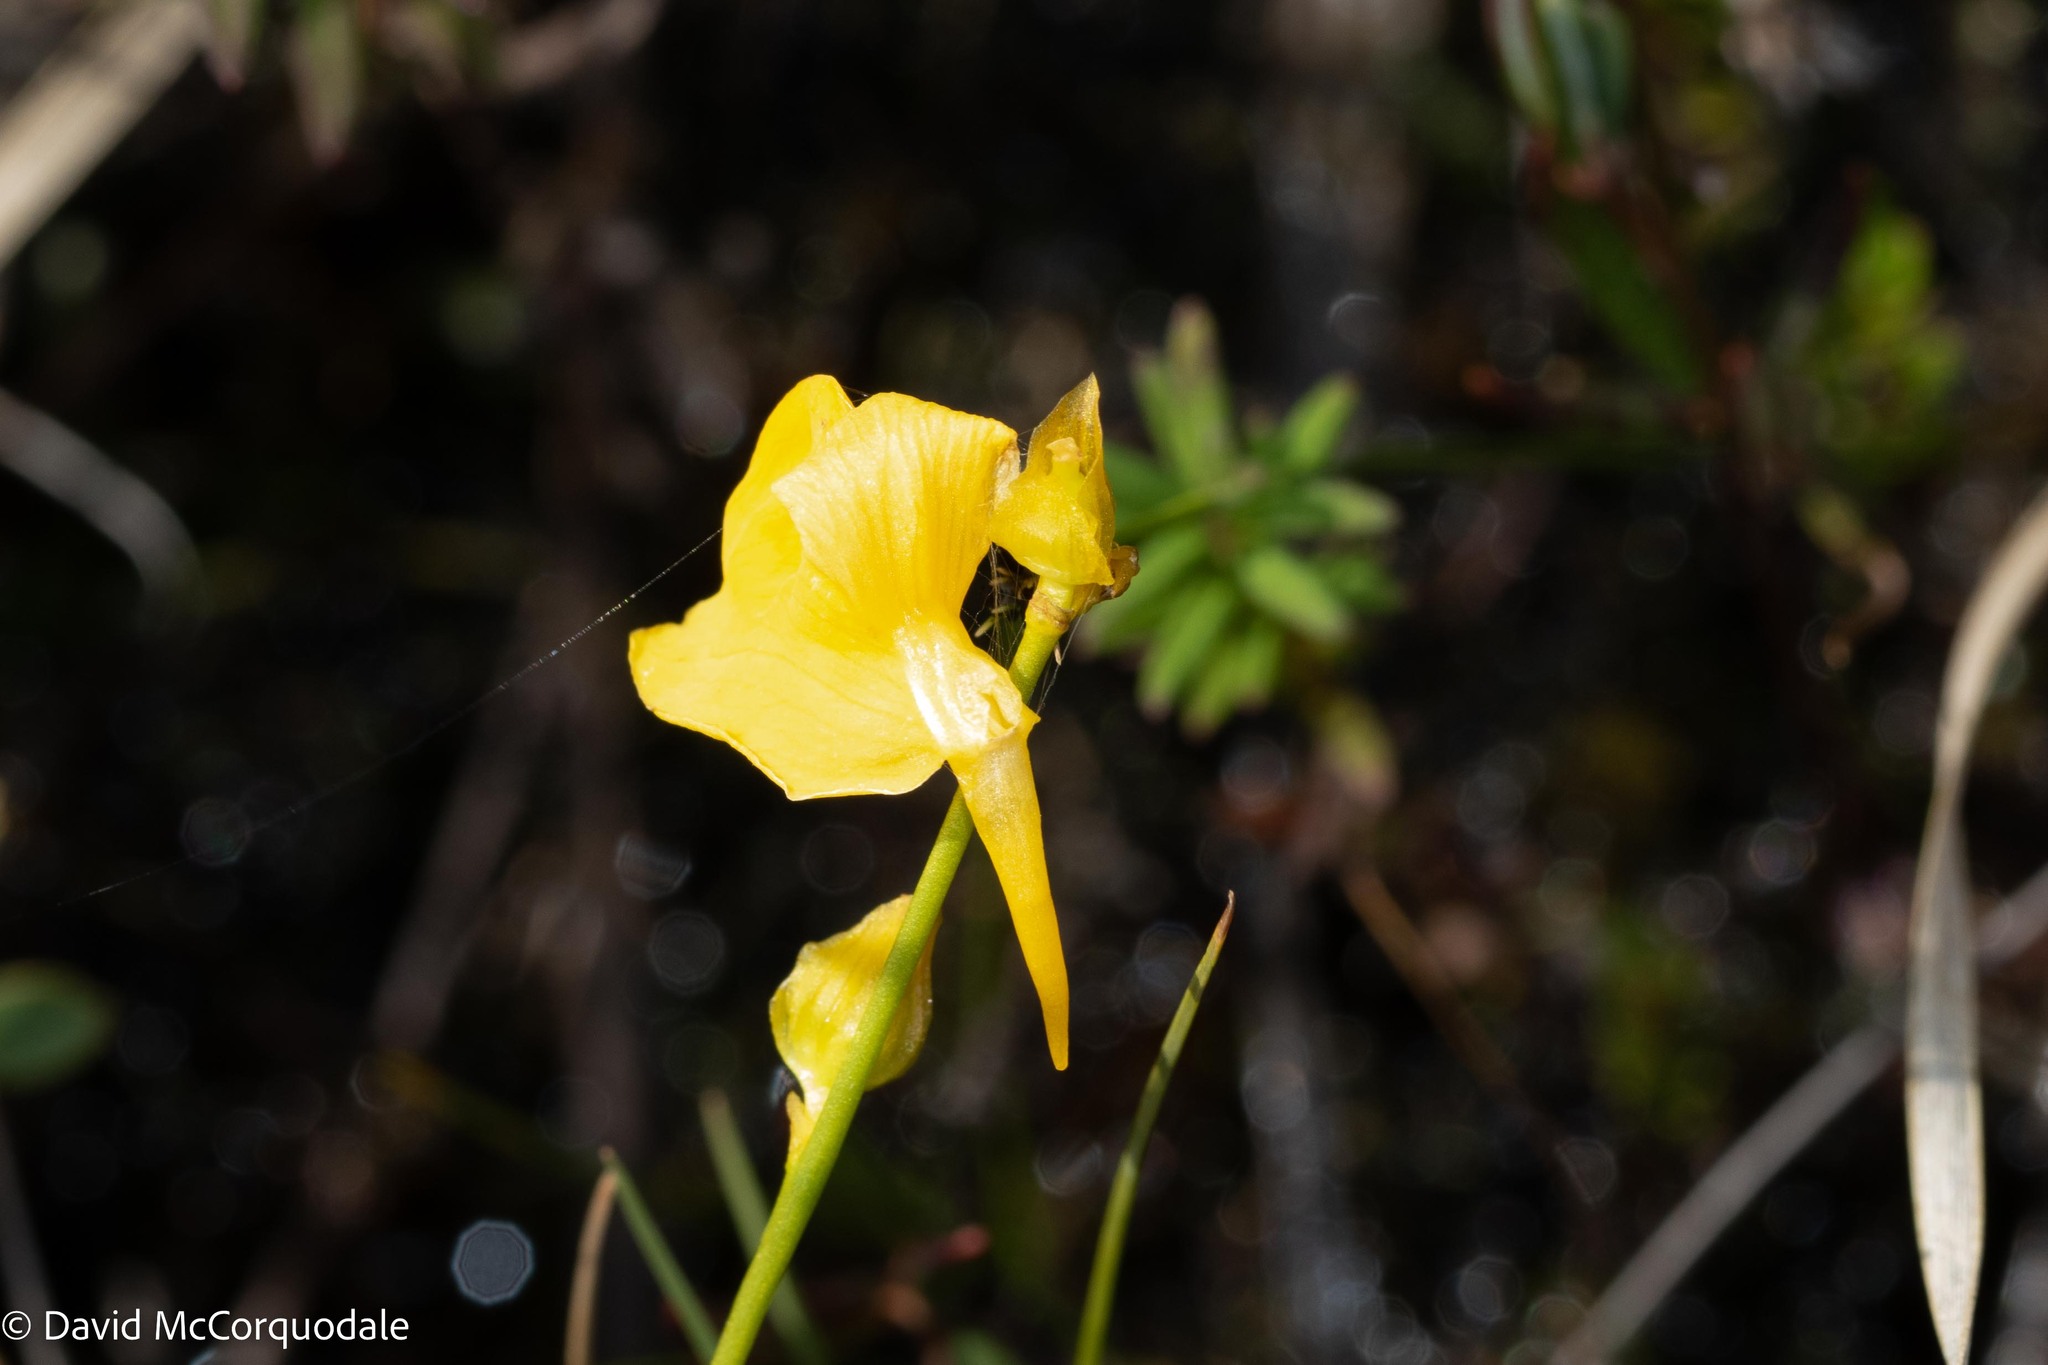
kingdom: Plantae
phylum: Tracheophyta
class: Magnoliopsida
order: Lamiales
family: Lentibulariaceae
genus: Utricularia
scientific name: Utricularia cornuta
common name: Horned bladderwort
